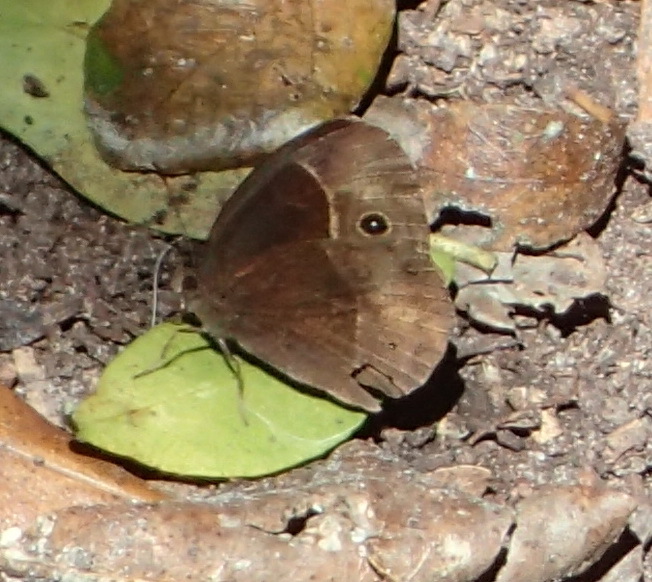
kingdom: Animalia
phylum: Arthropoda
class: Insecta
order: Lepidoptera
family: Nymphalidae
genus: Mycalesis
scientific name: Mycalesis rhacotis
